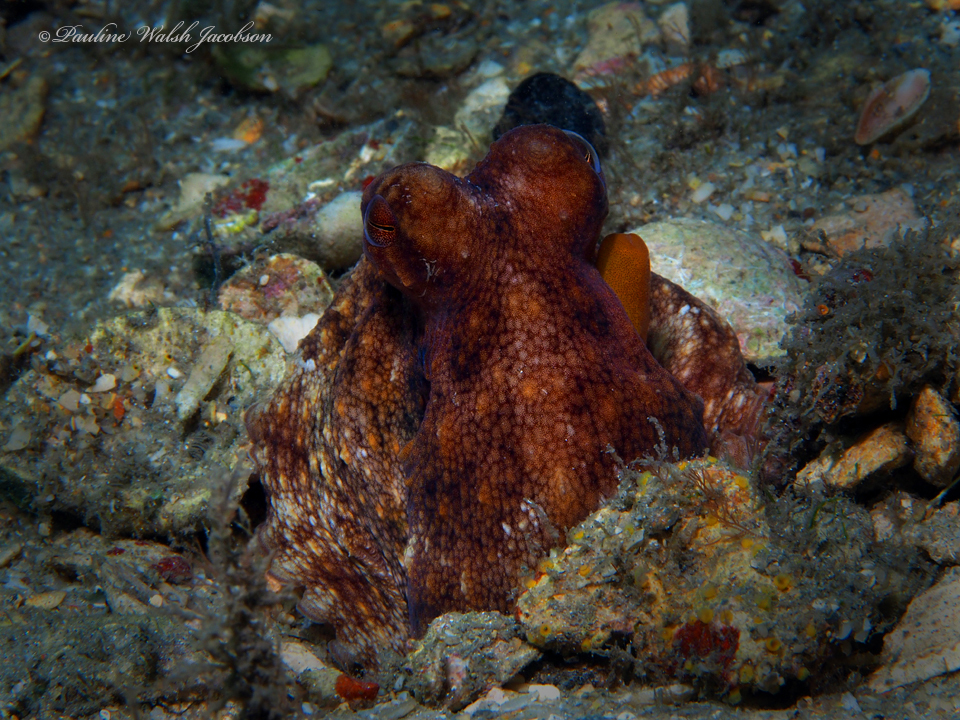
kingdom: Animalia
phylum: Mollusca
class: Cephalopoda
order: Octopoda
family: Octopodidae
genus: Octopus
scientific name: Octopus americanus
